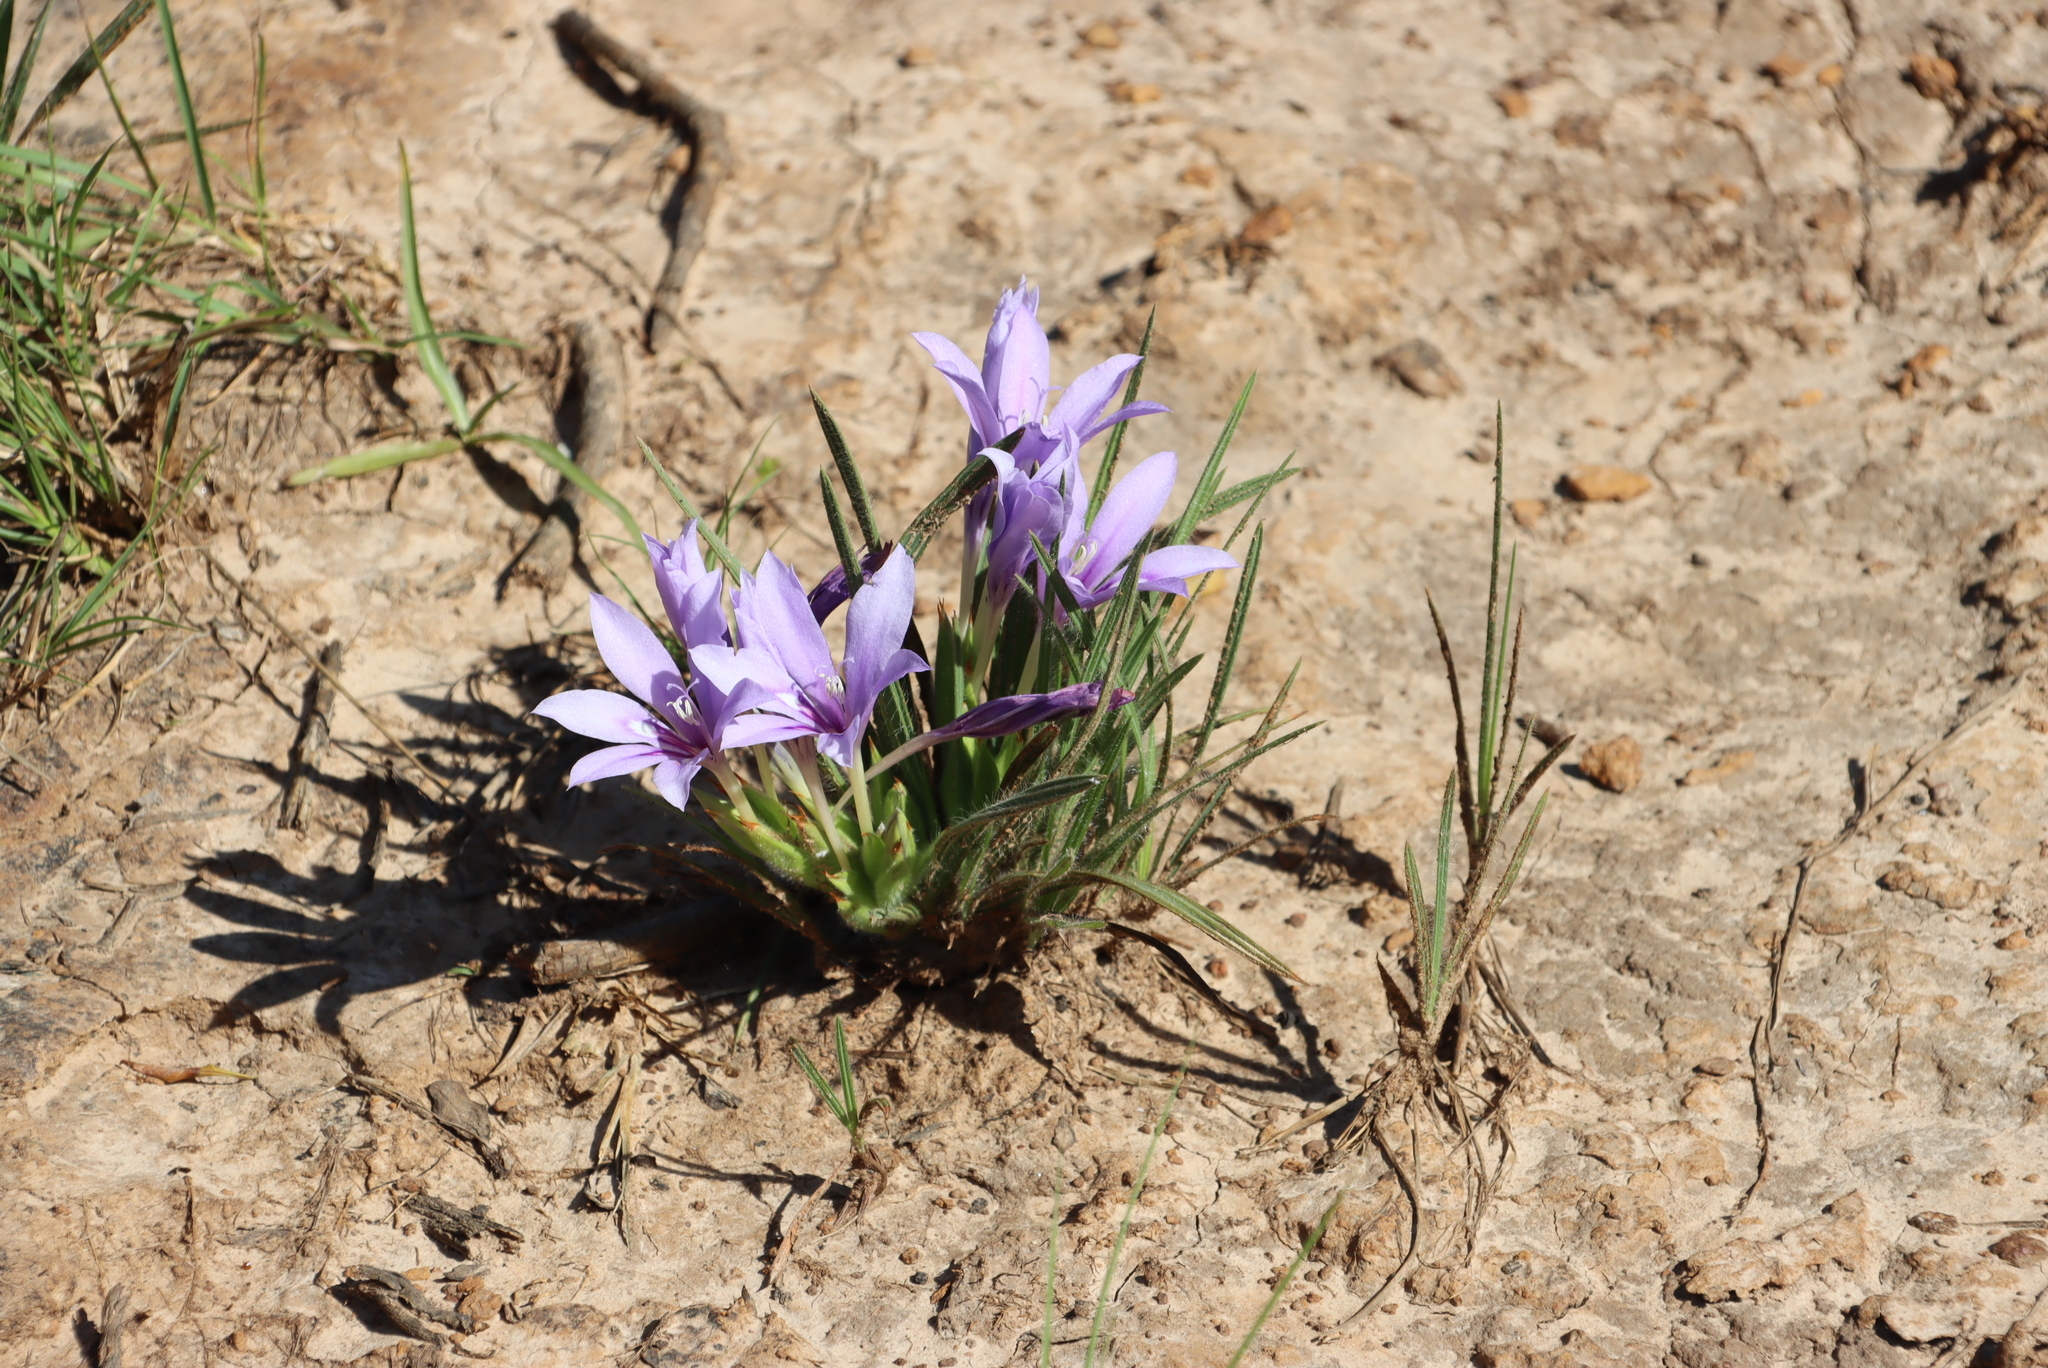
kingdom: Plantae
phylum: Tracheophyta
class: Liliopsida
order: Asparagales
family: Iridaceae
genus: Babiana
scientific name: Babiana sambucina
